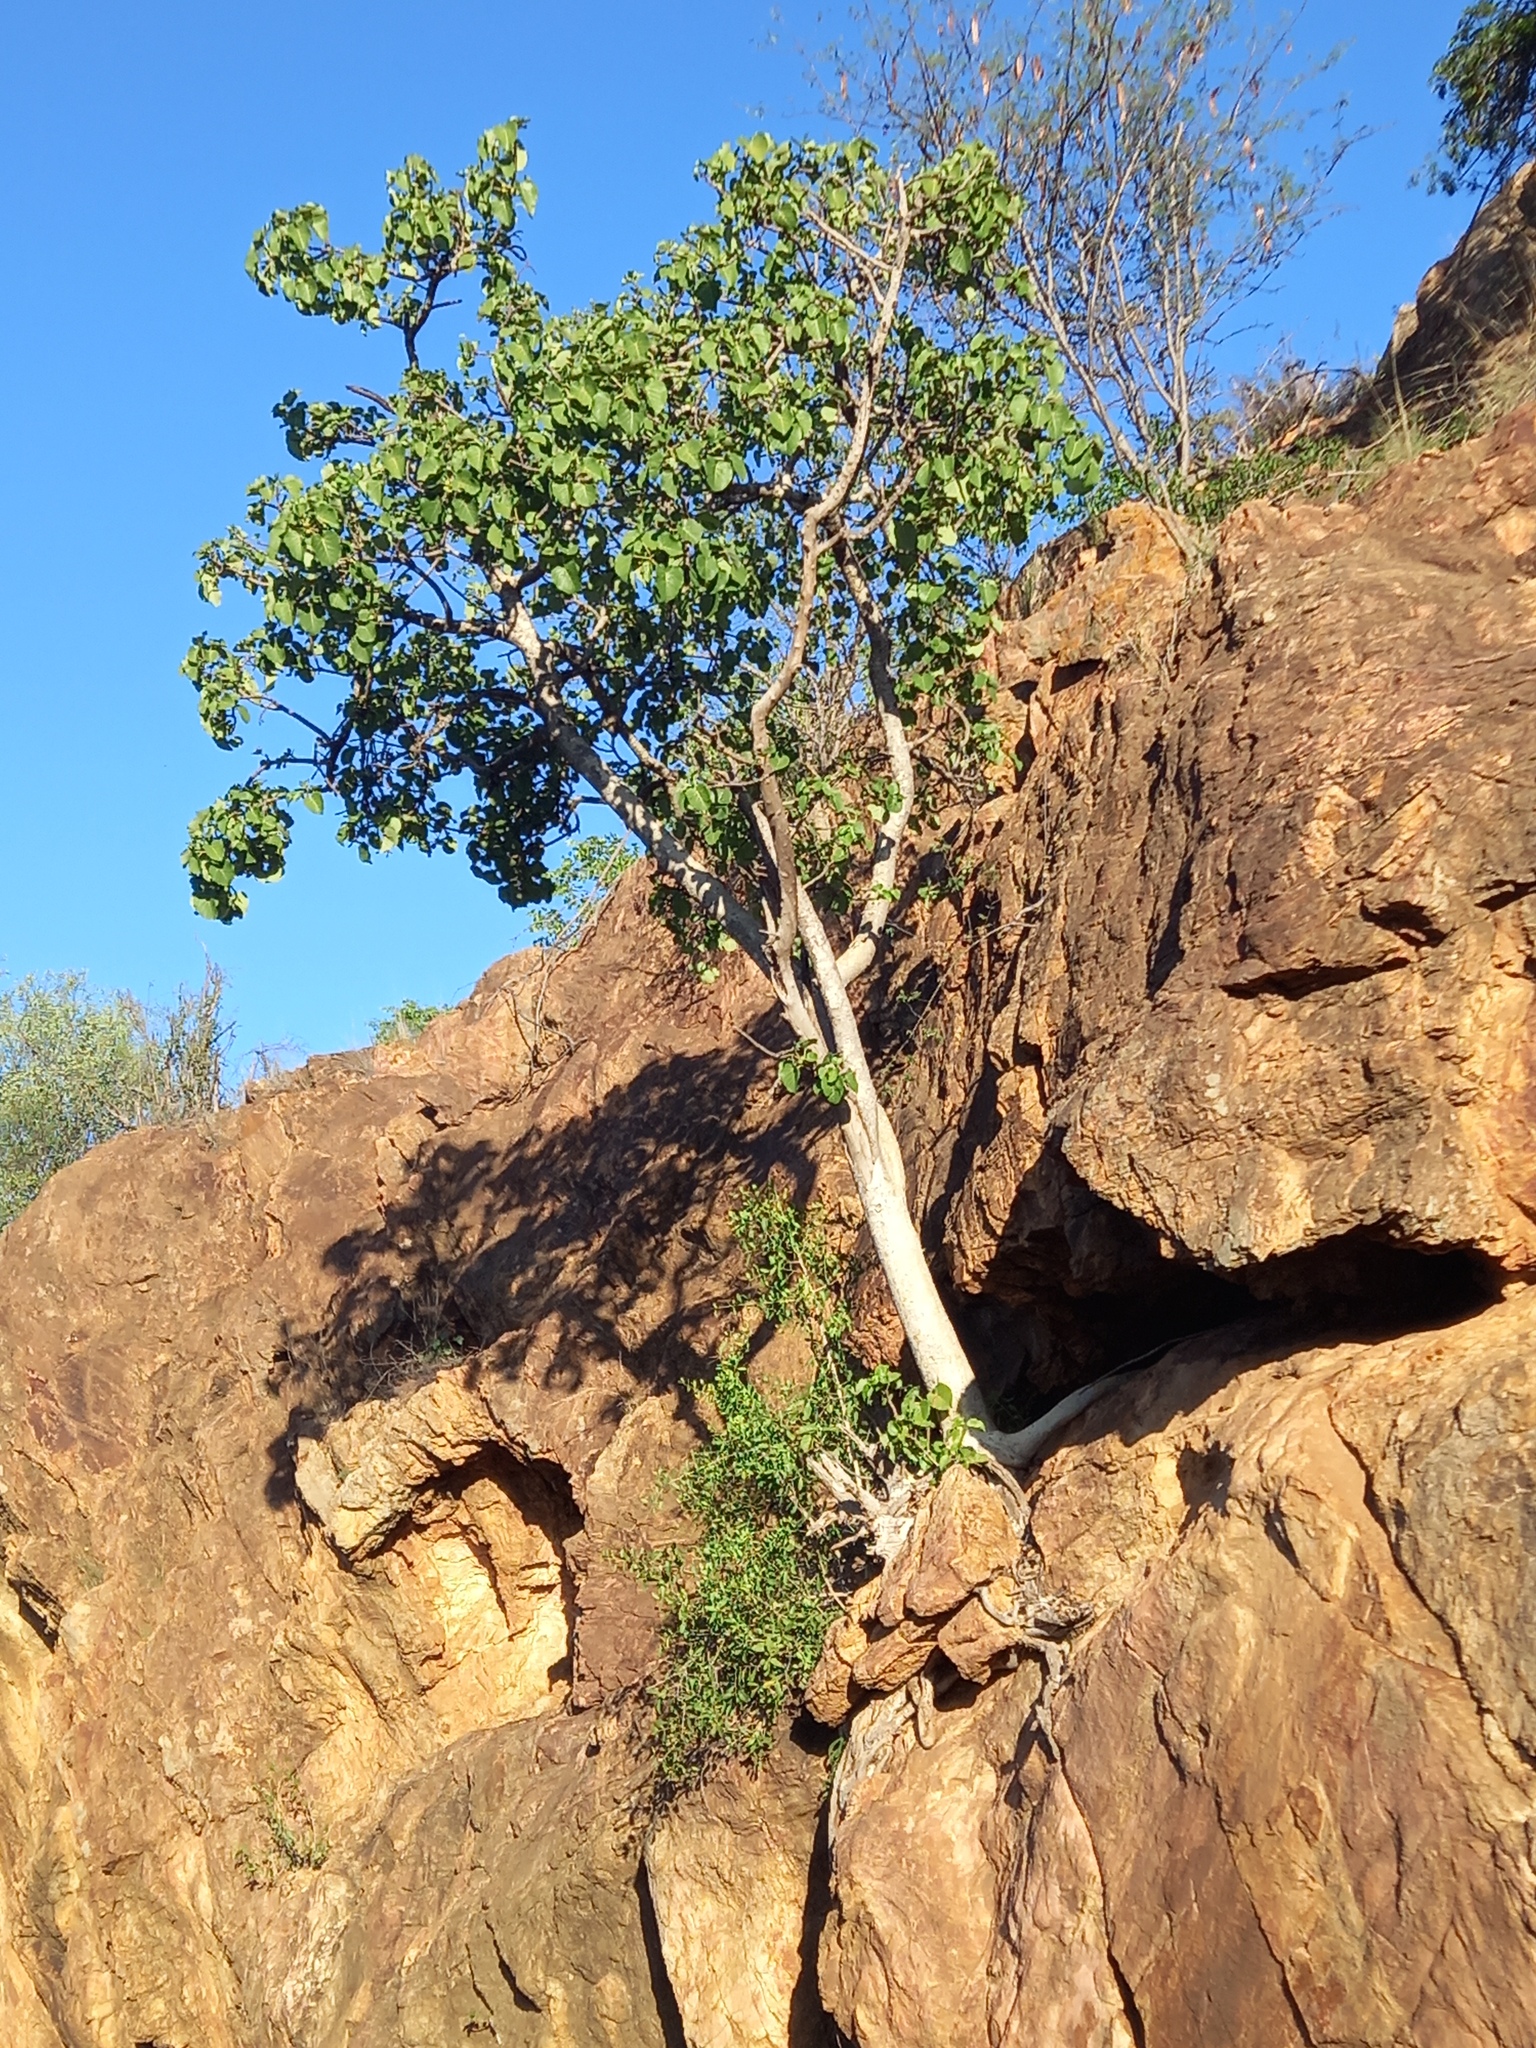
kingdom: Plantae
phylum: Tracheophyta
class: Magnoliopsida
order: Rosales
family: Moraceae
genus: Ficus
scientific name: Ficus abutilifolia
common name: Large-leaved rock fig
